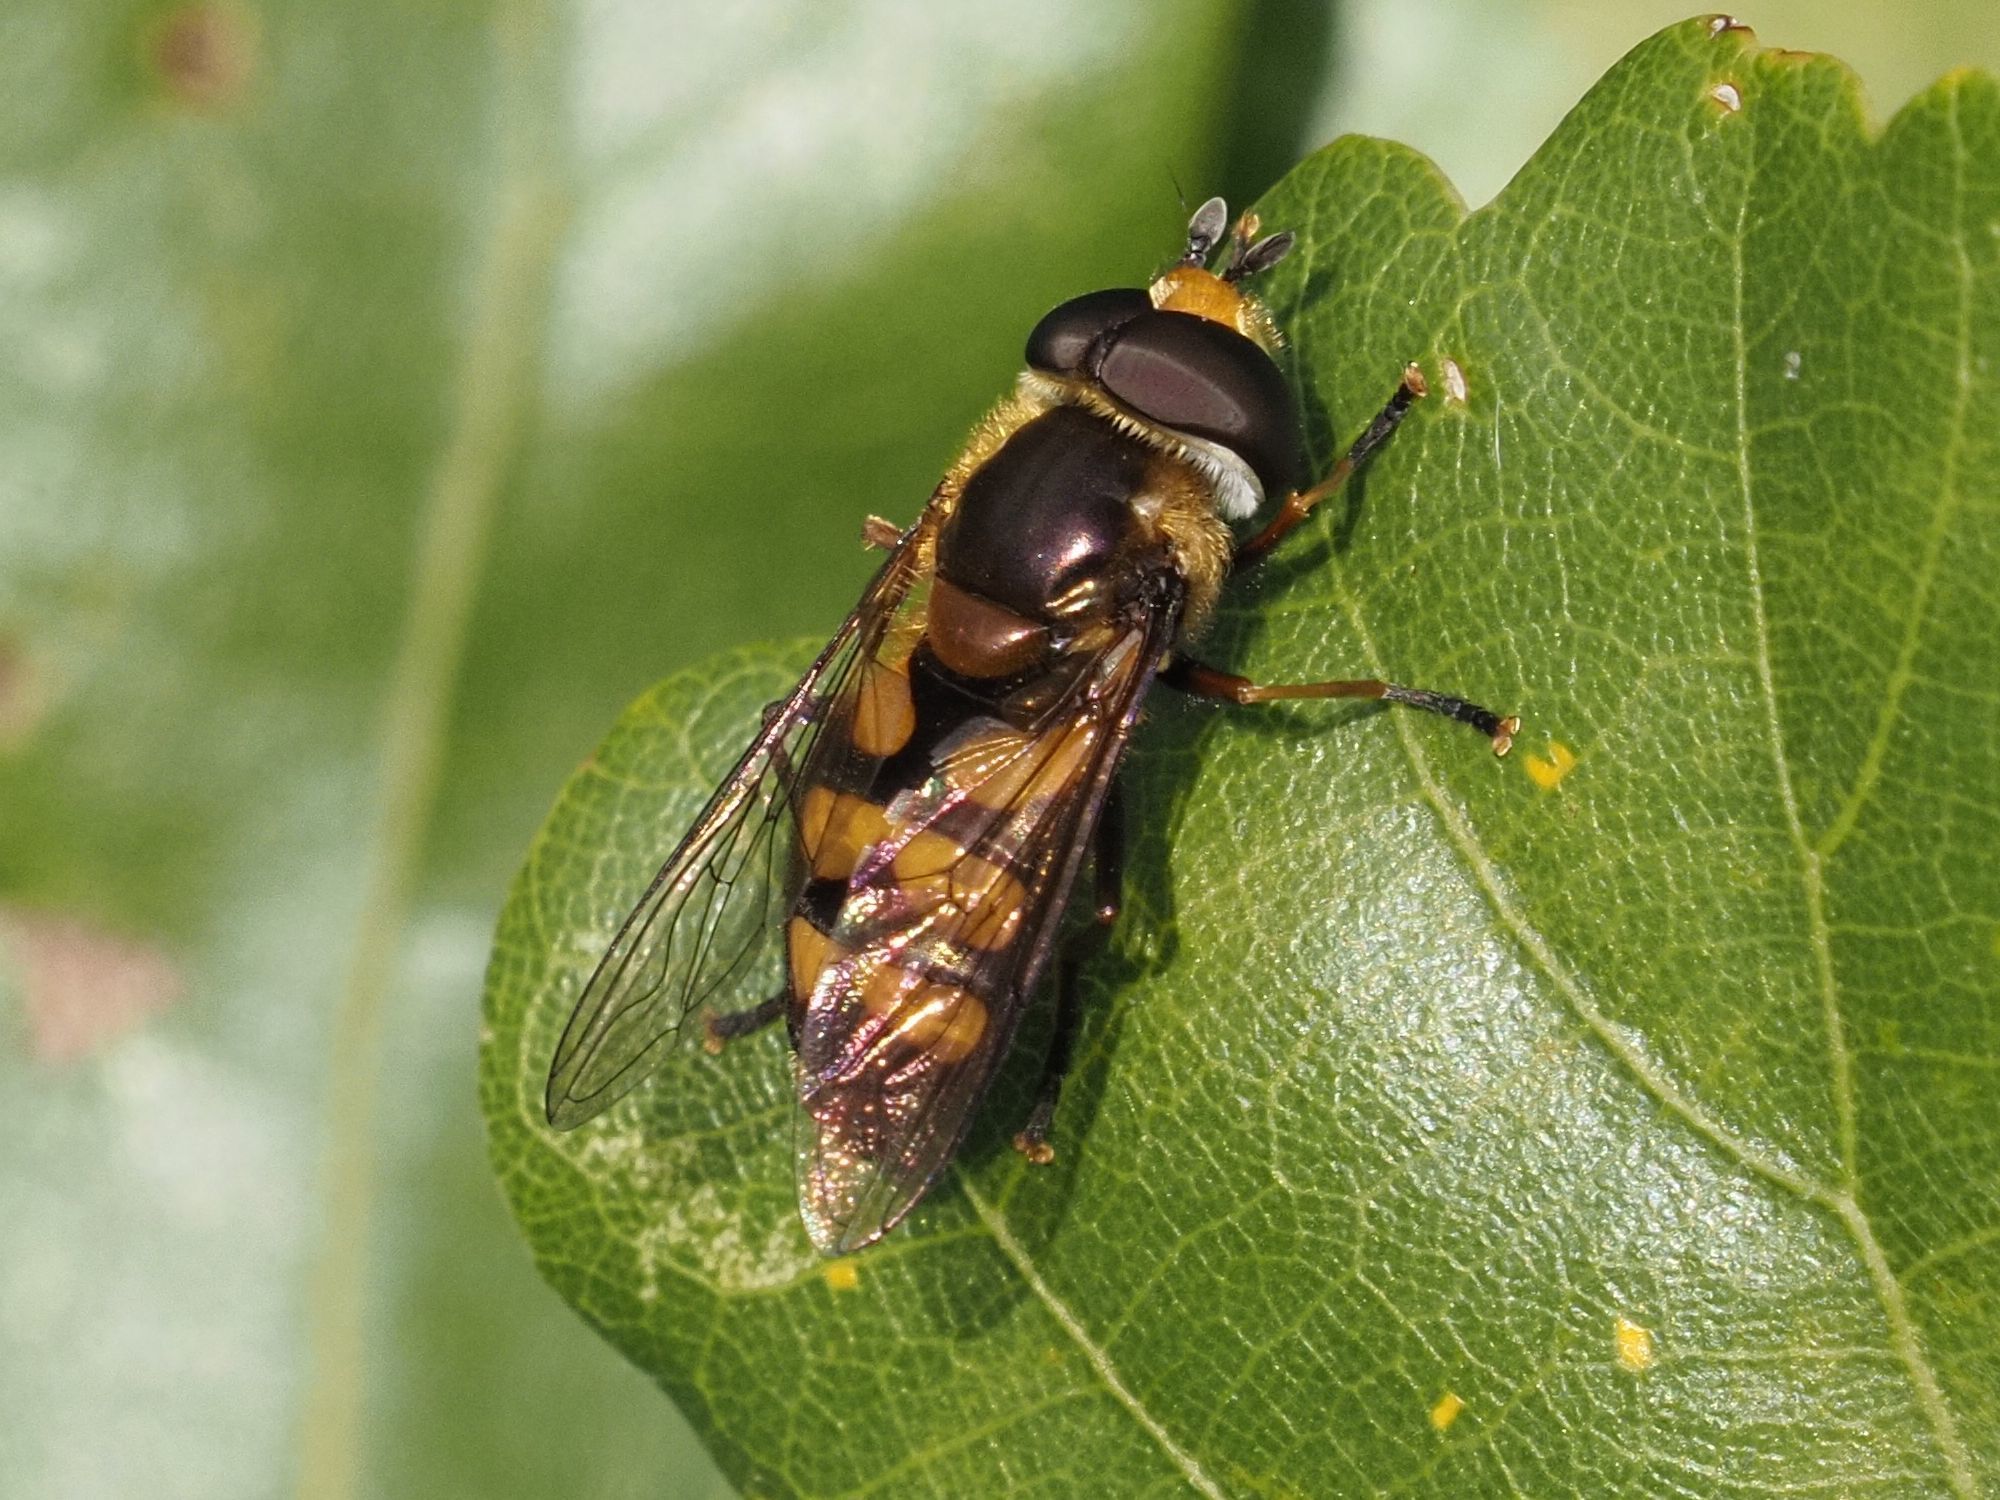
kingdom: Animalia
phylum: Arthropoda
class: Insecta
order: Diptera
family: Syrphidae
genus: Didea
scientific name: Didea fasciata
